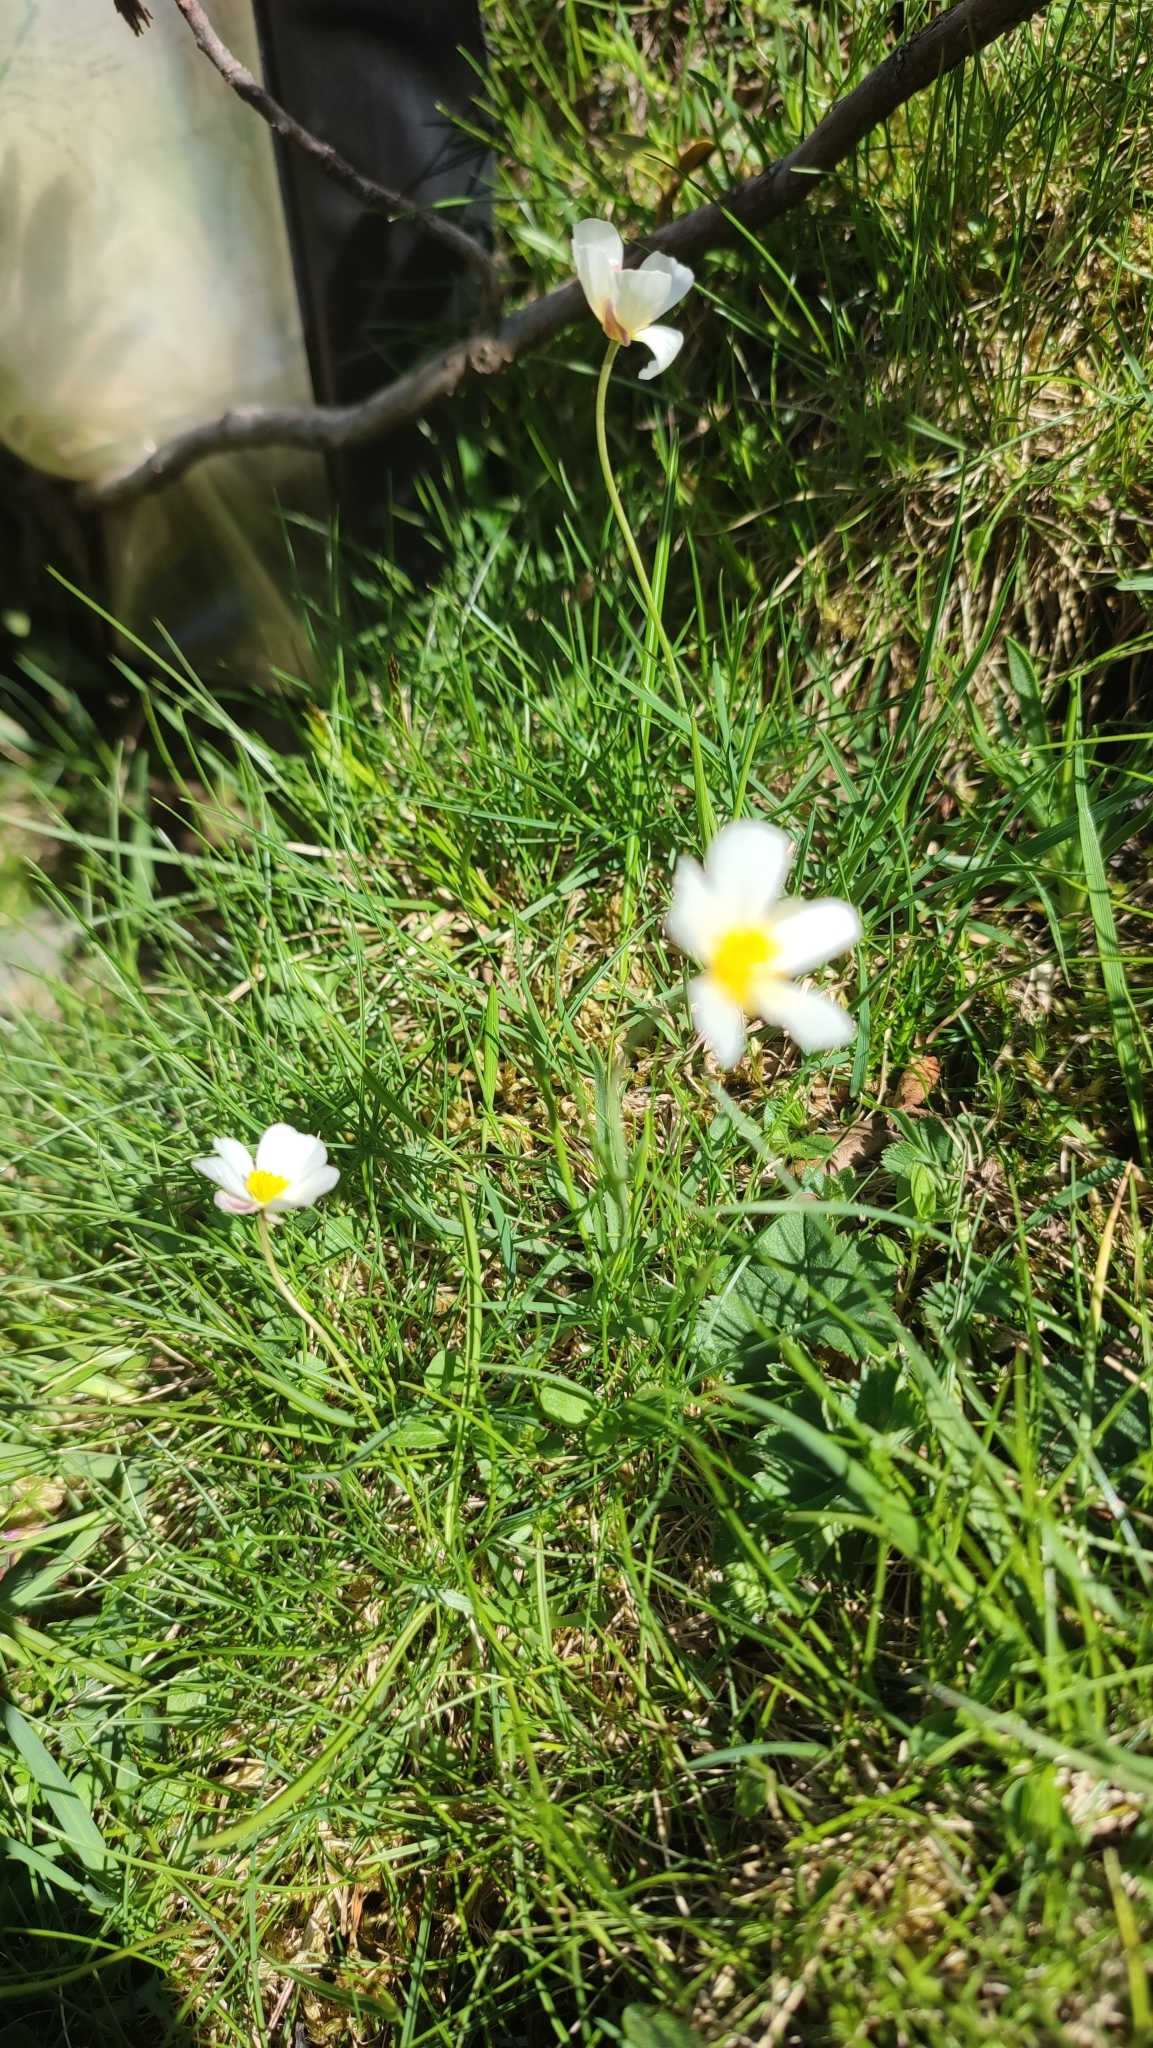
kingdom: Plantae
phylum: Tracheophyta
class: Magnoliopsida
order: Ranunculales
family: Ranunculaceae
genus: Ranunculus
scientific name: Ranunculus pyrenaeus
